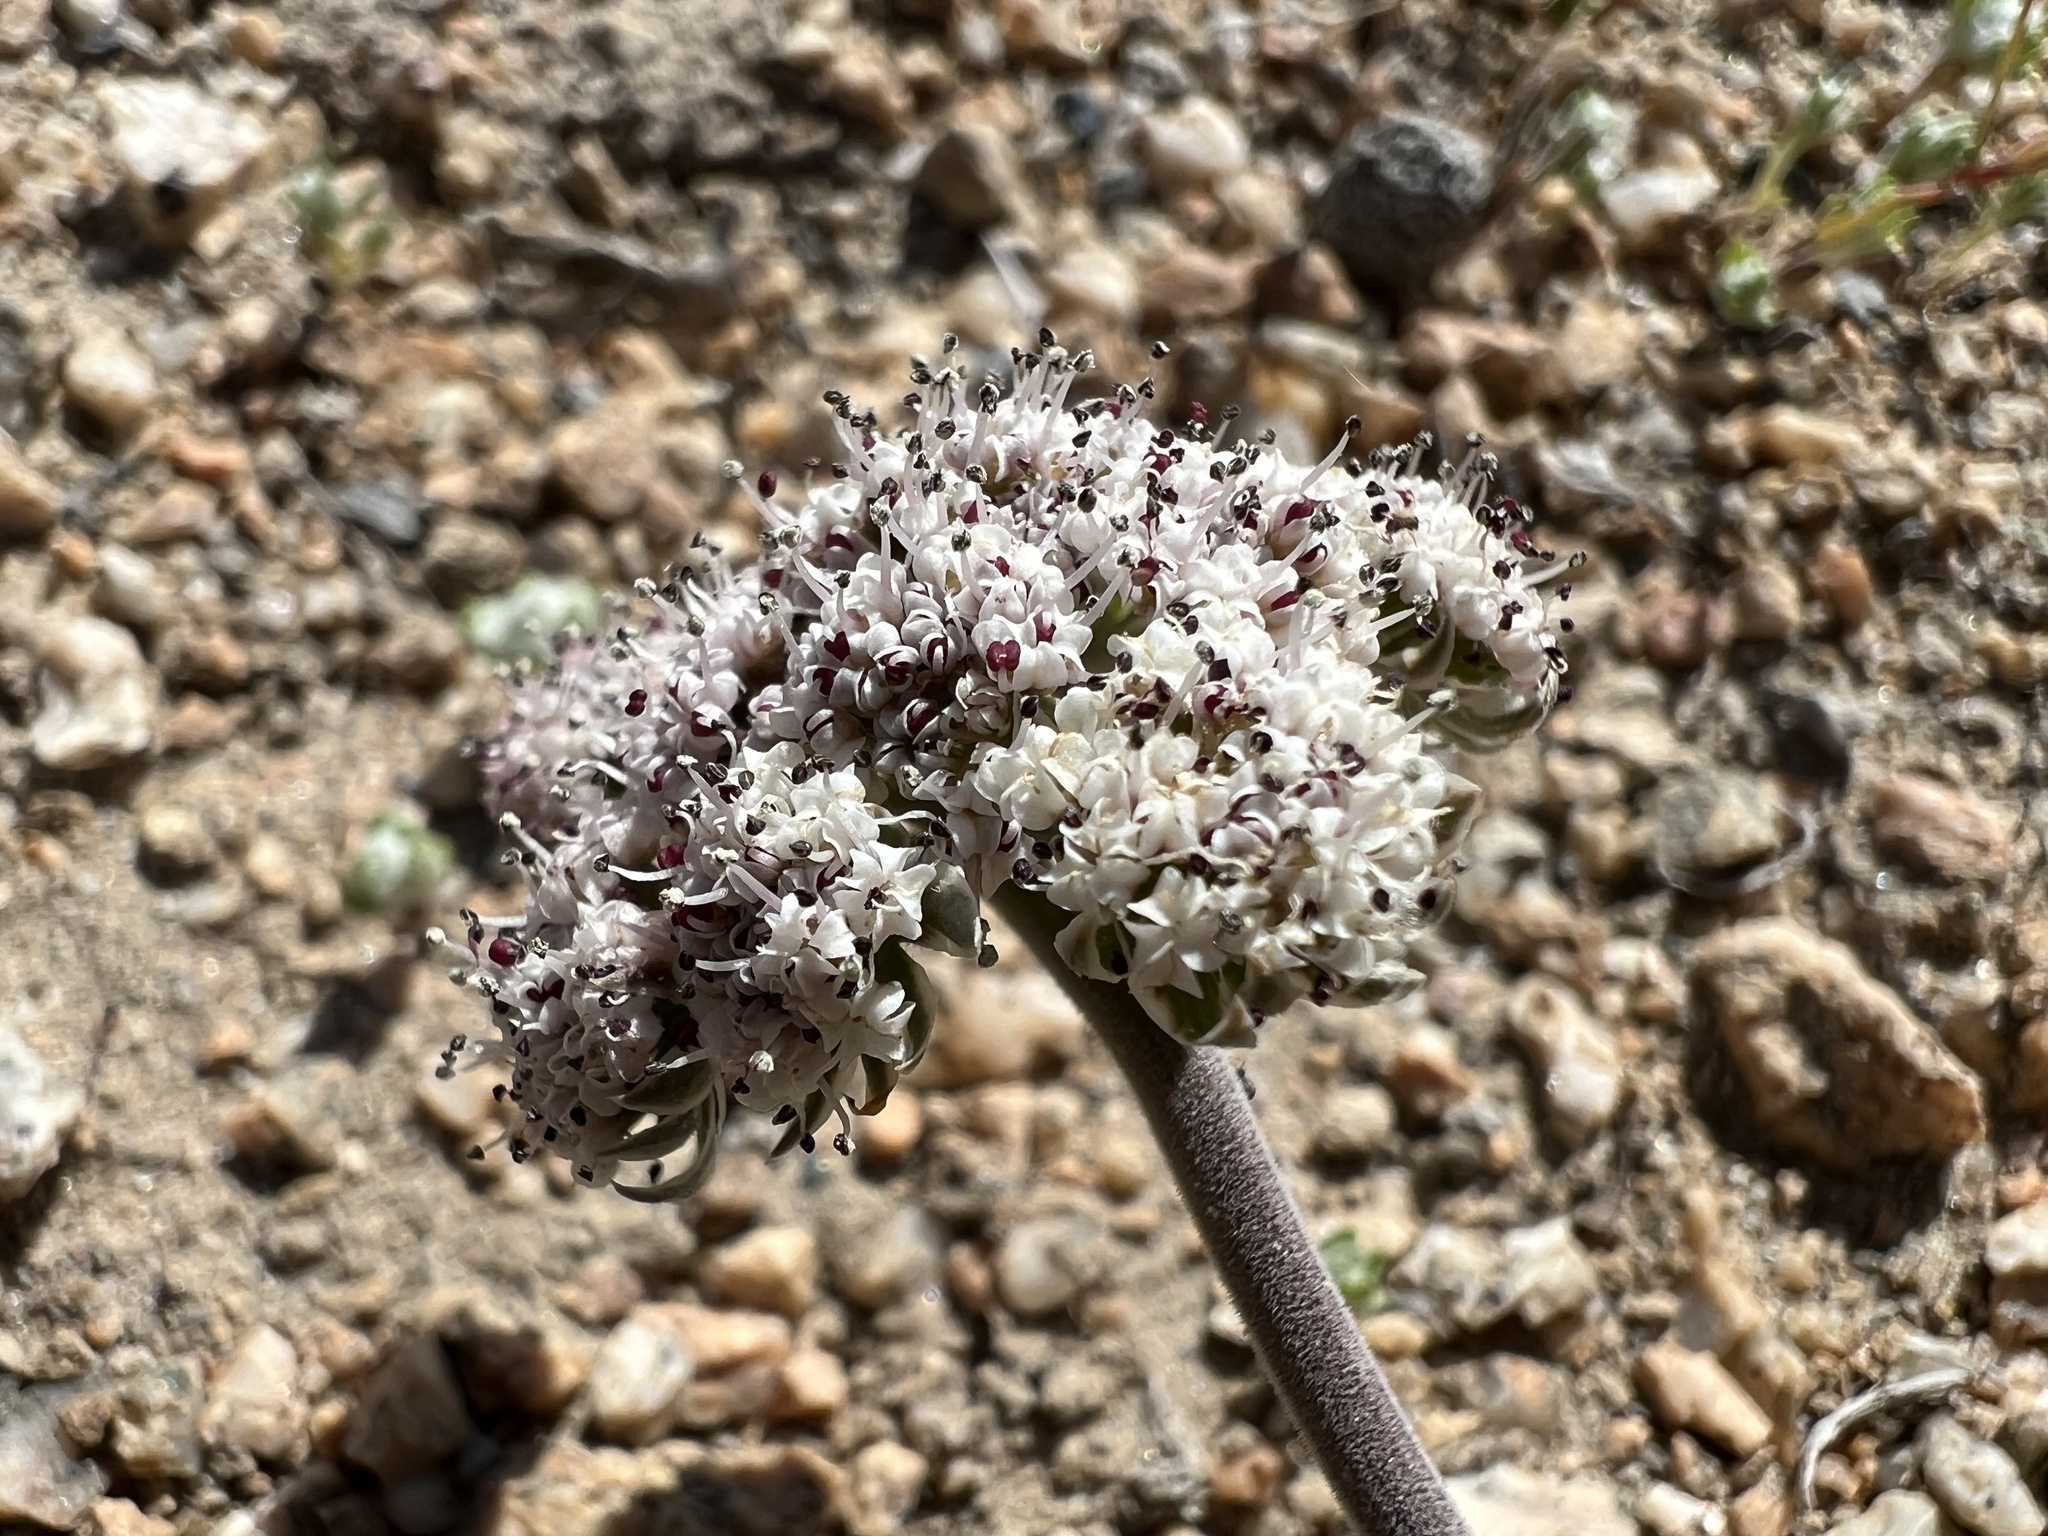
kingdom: Plantae
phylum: Tracheophyta
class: Magnoliopsida
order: Apiales
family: Apiaceae
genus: Lomatium
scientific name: Lomatium nevadense
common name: Nevada lomatium
